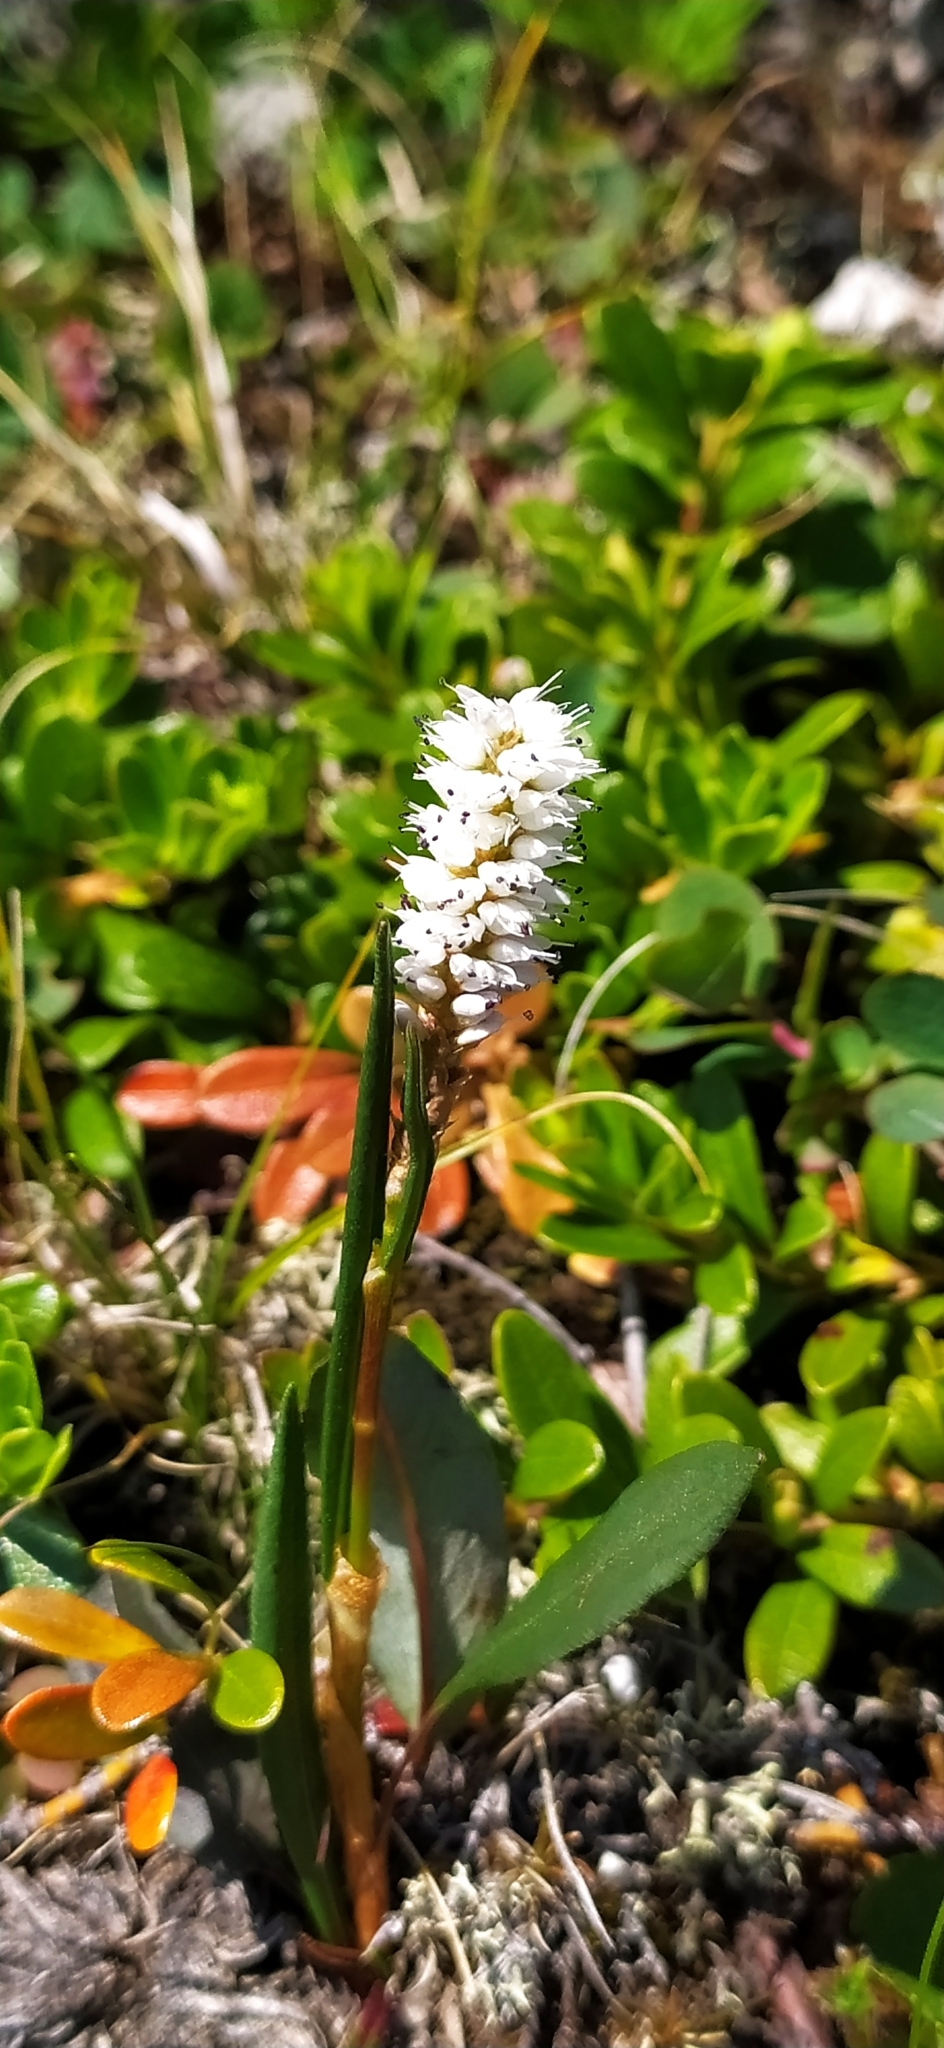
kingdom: Plantae
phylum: Tracheophyta
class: Magnoliopsida
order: Caryophyllales
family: Polygonaceae
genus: Bistorta
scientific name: Bistorta vivipara
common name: Alpine bistort
